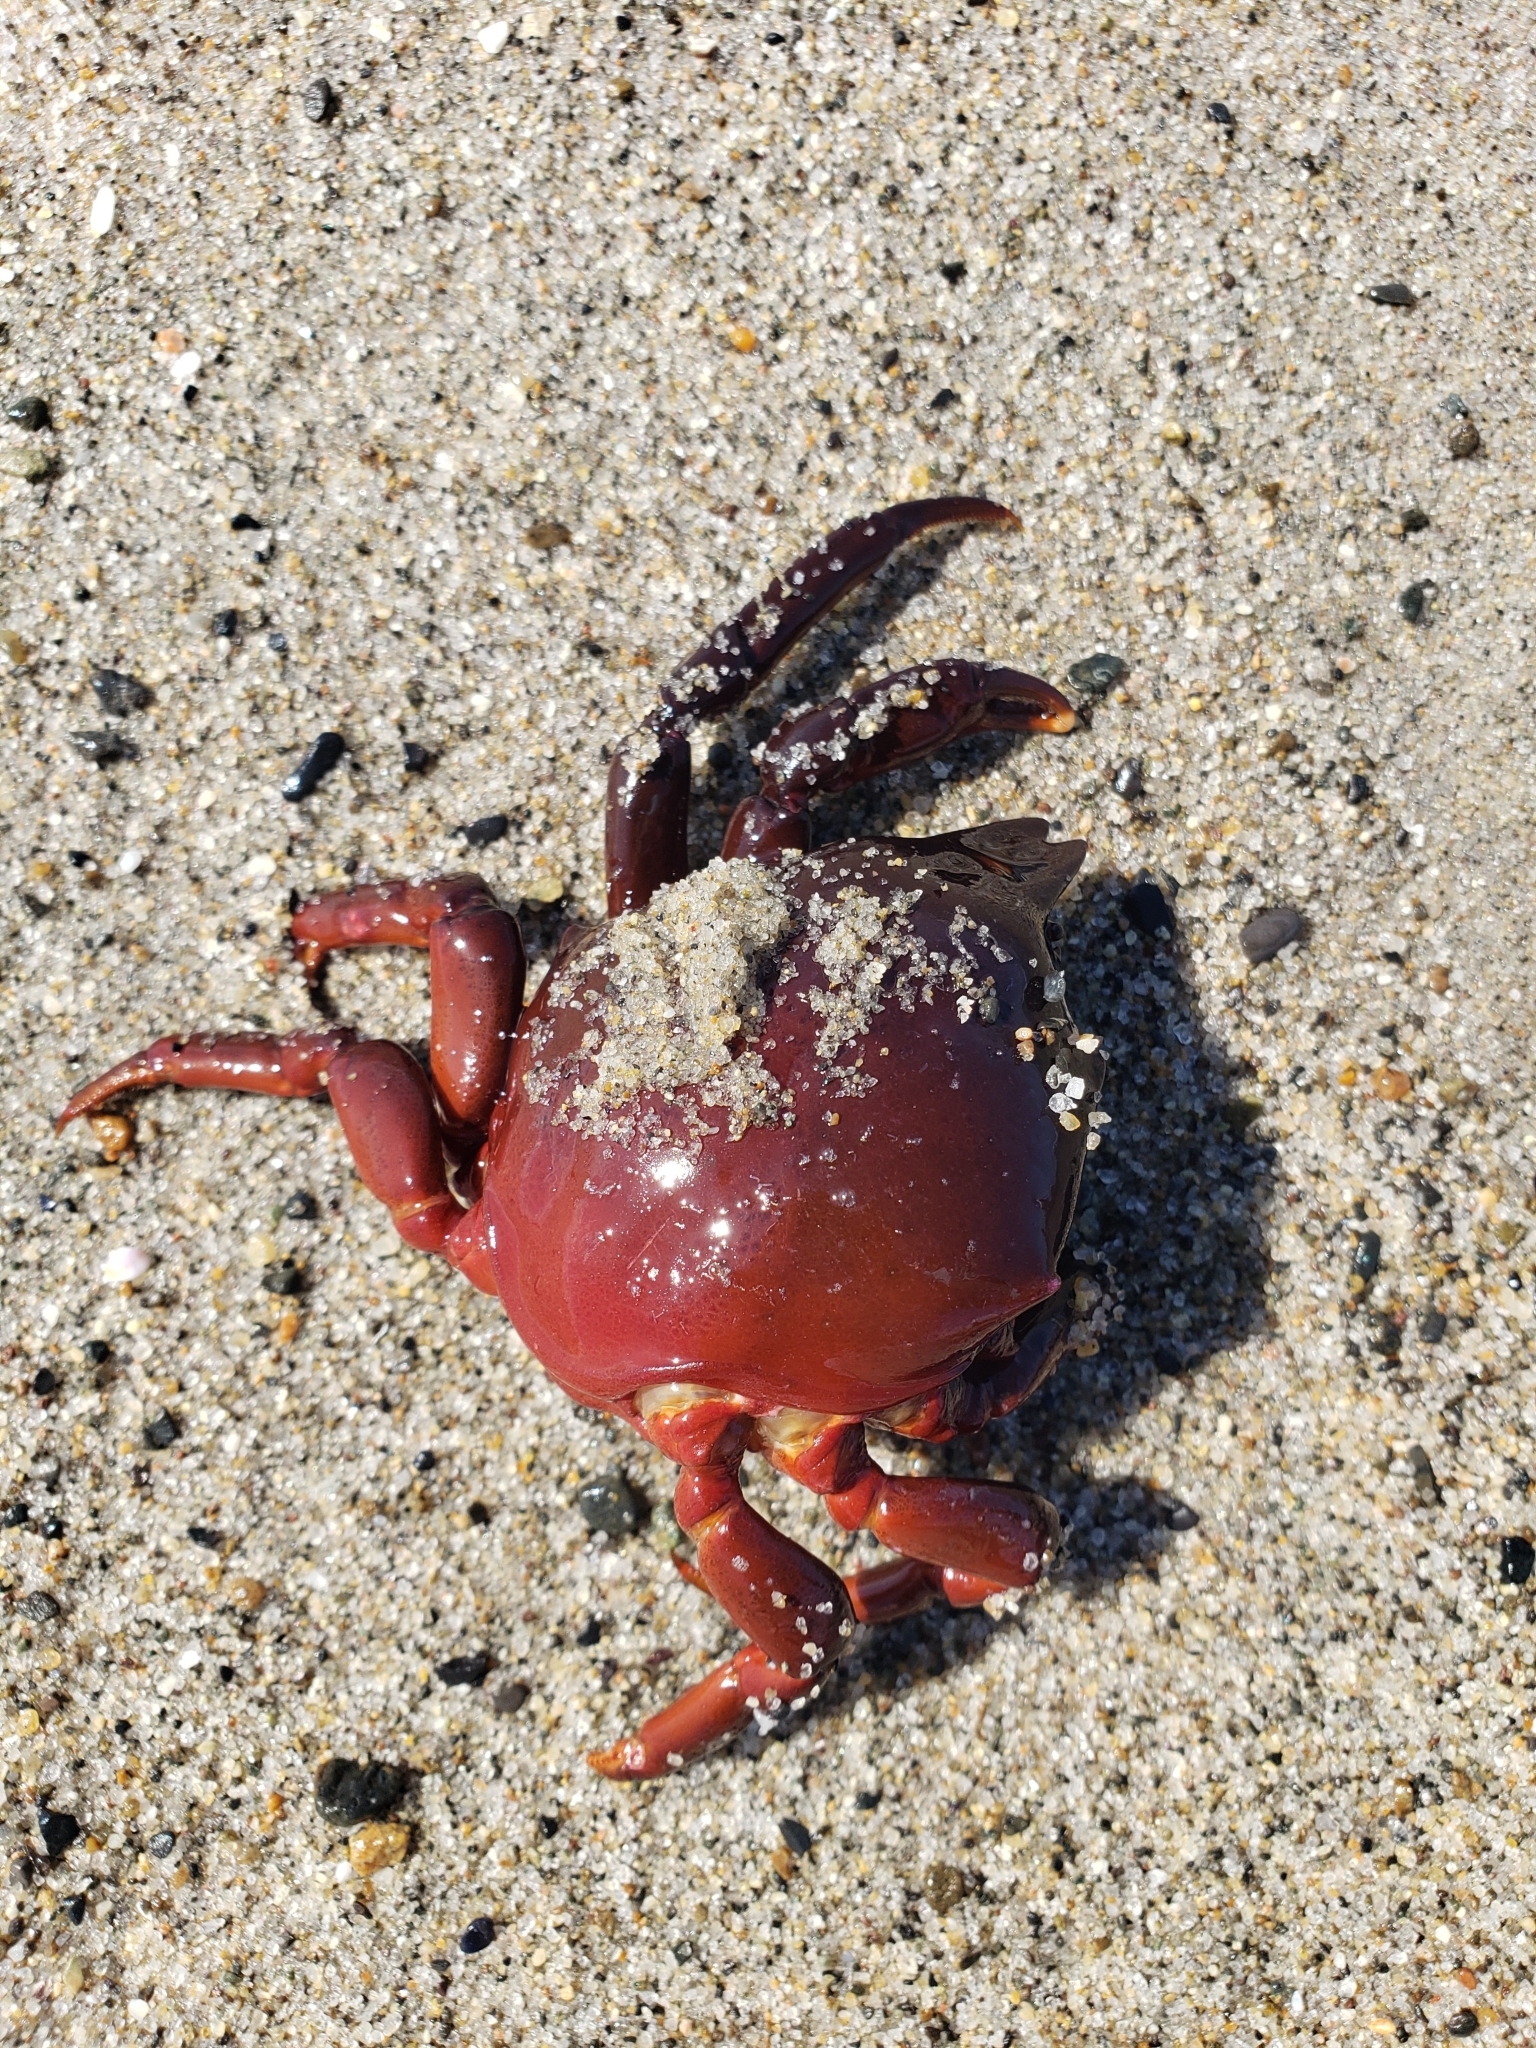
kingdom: Animalia
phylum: Arthropoda
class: Malacostraca
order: Decapoda
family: Epialtidae
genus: Taliepus
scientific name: Taliepus nuttallii
